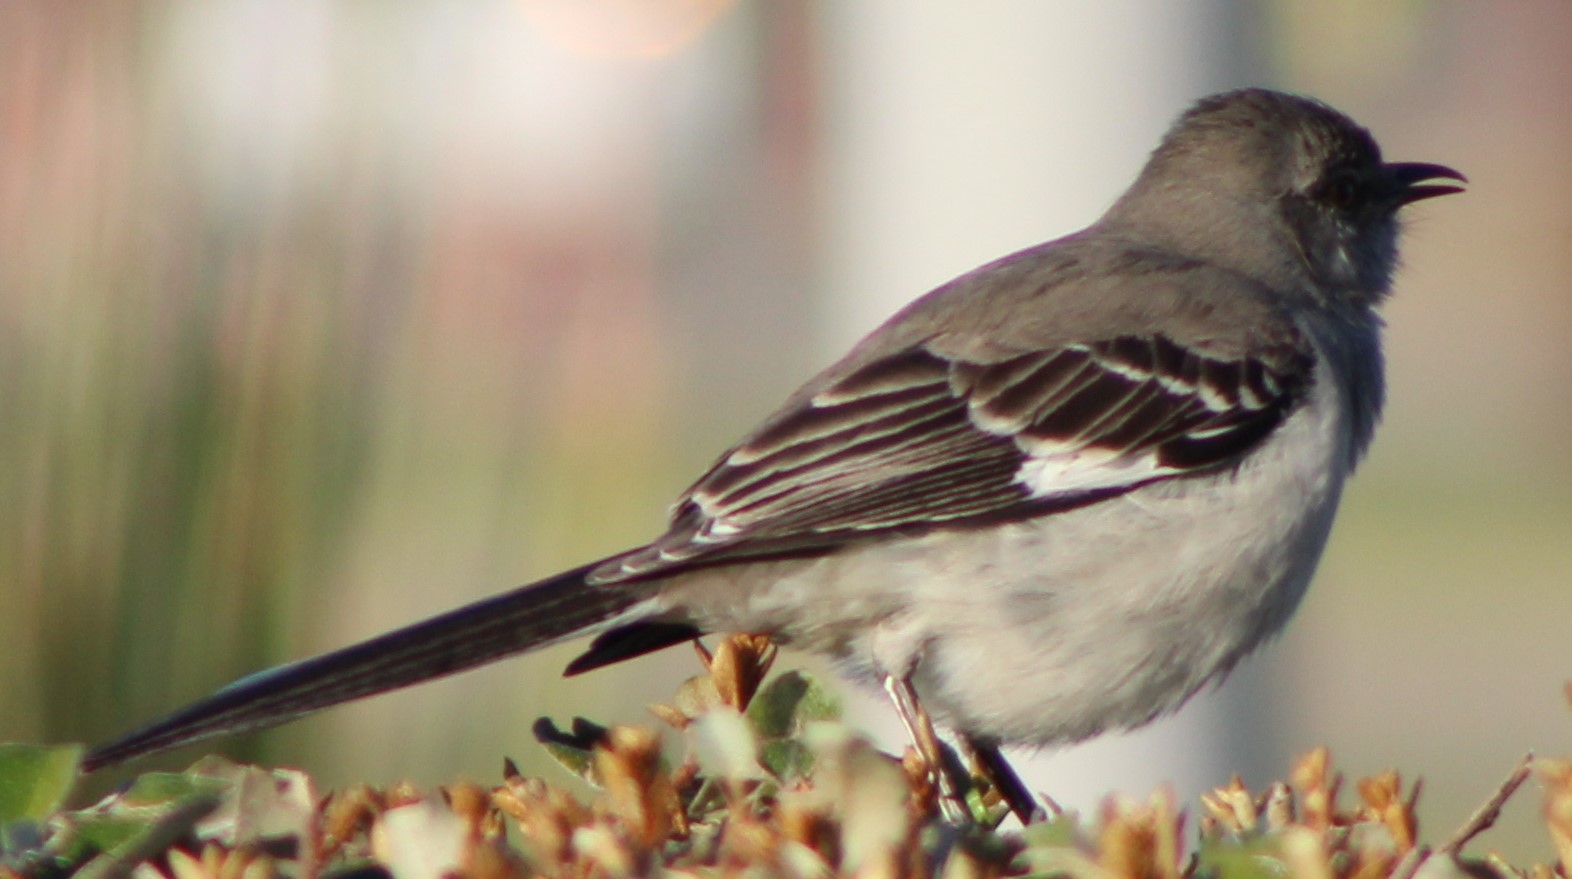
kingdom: Animalia
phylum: Chordata
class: Aves
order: Passeriformes
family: Mimidae
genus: Mimus
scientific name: Mimus polyglottos
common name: Northern mockingbird
